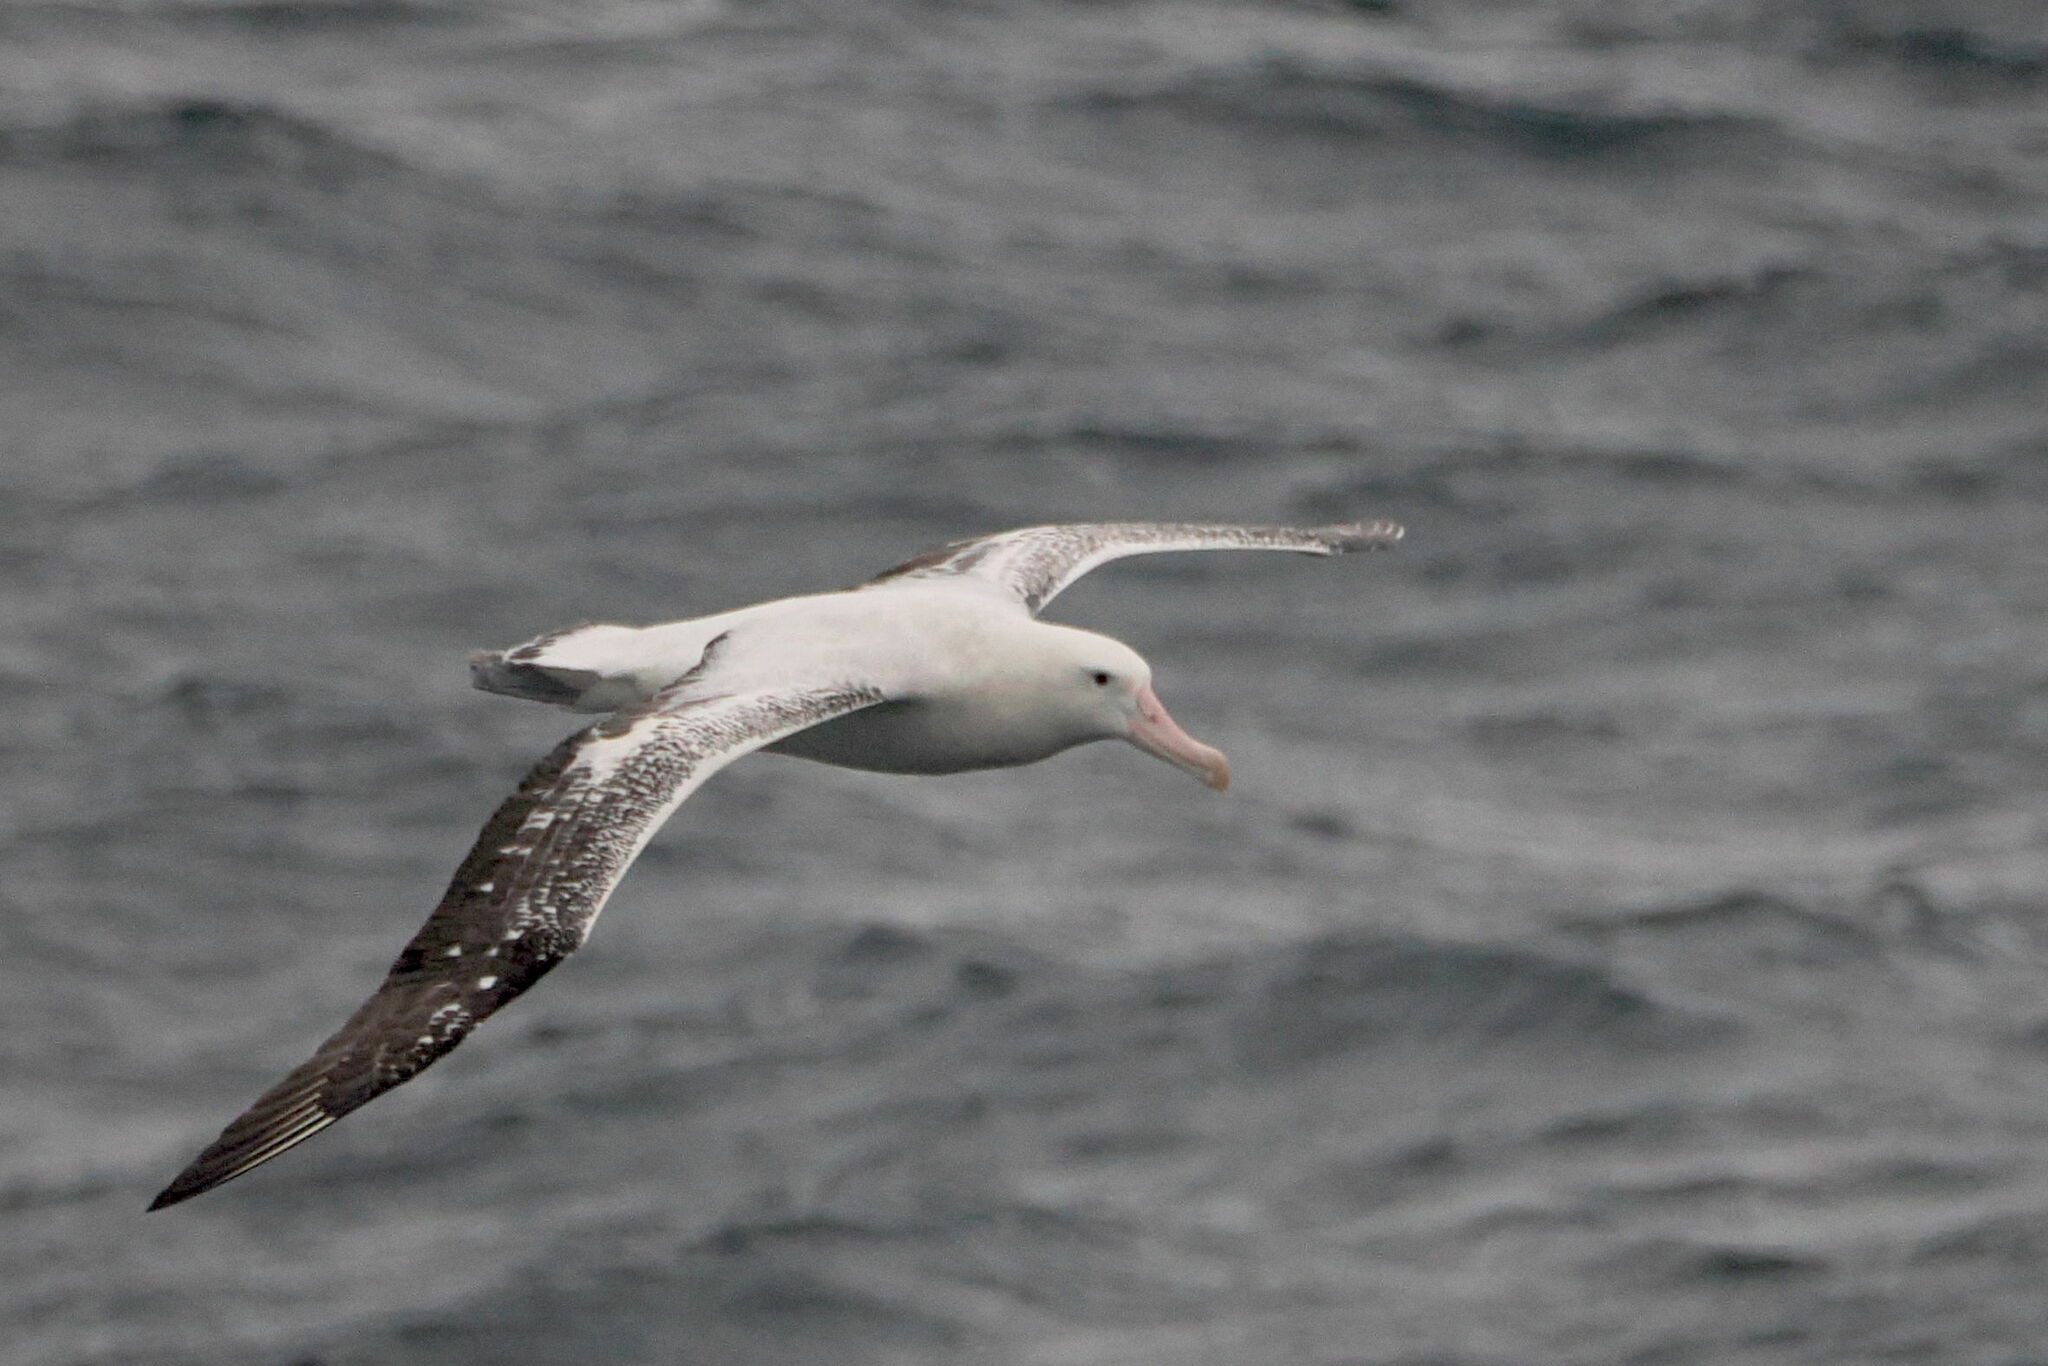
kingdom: Animalia
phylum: Chordata
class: Aves
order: Procellariiformes
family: Diomedeidae
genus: Diomedea
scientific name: Diomedea exulans
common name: Wandering albatross
